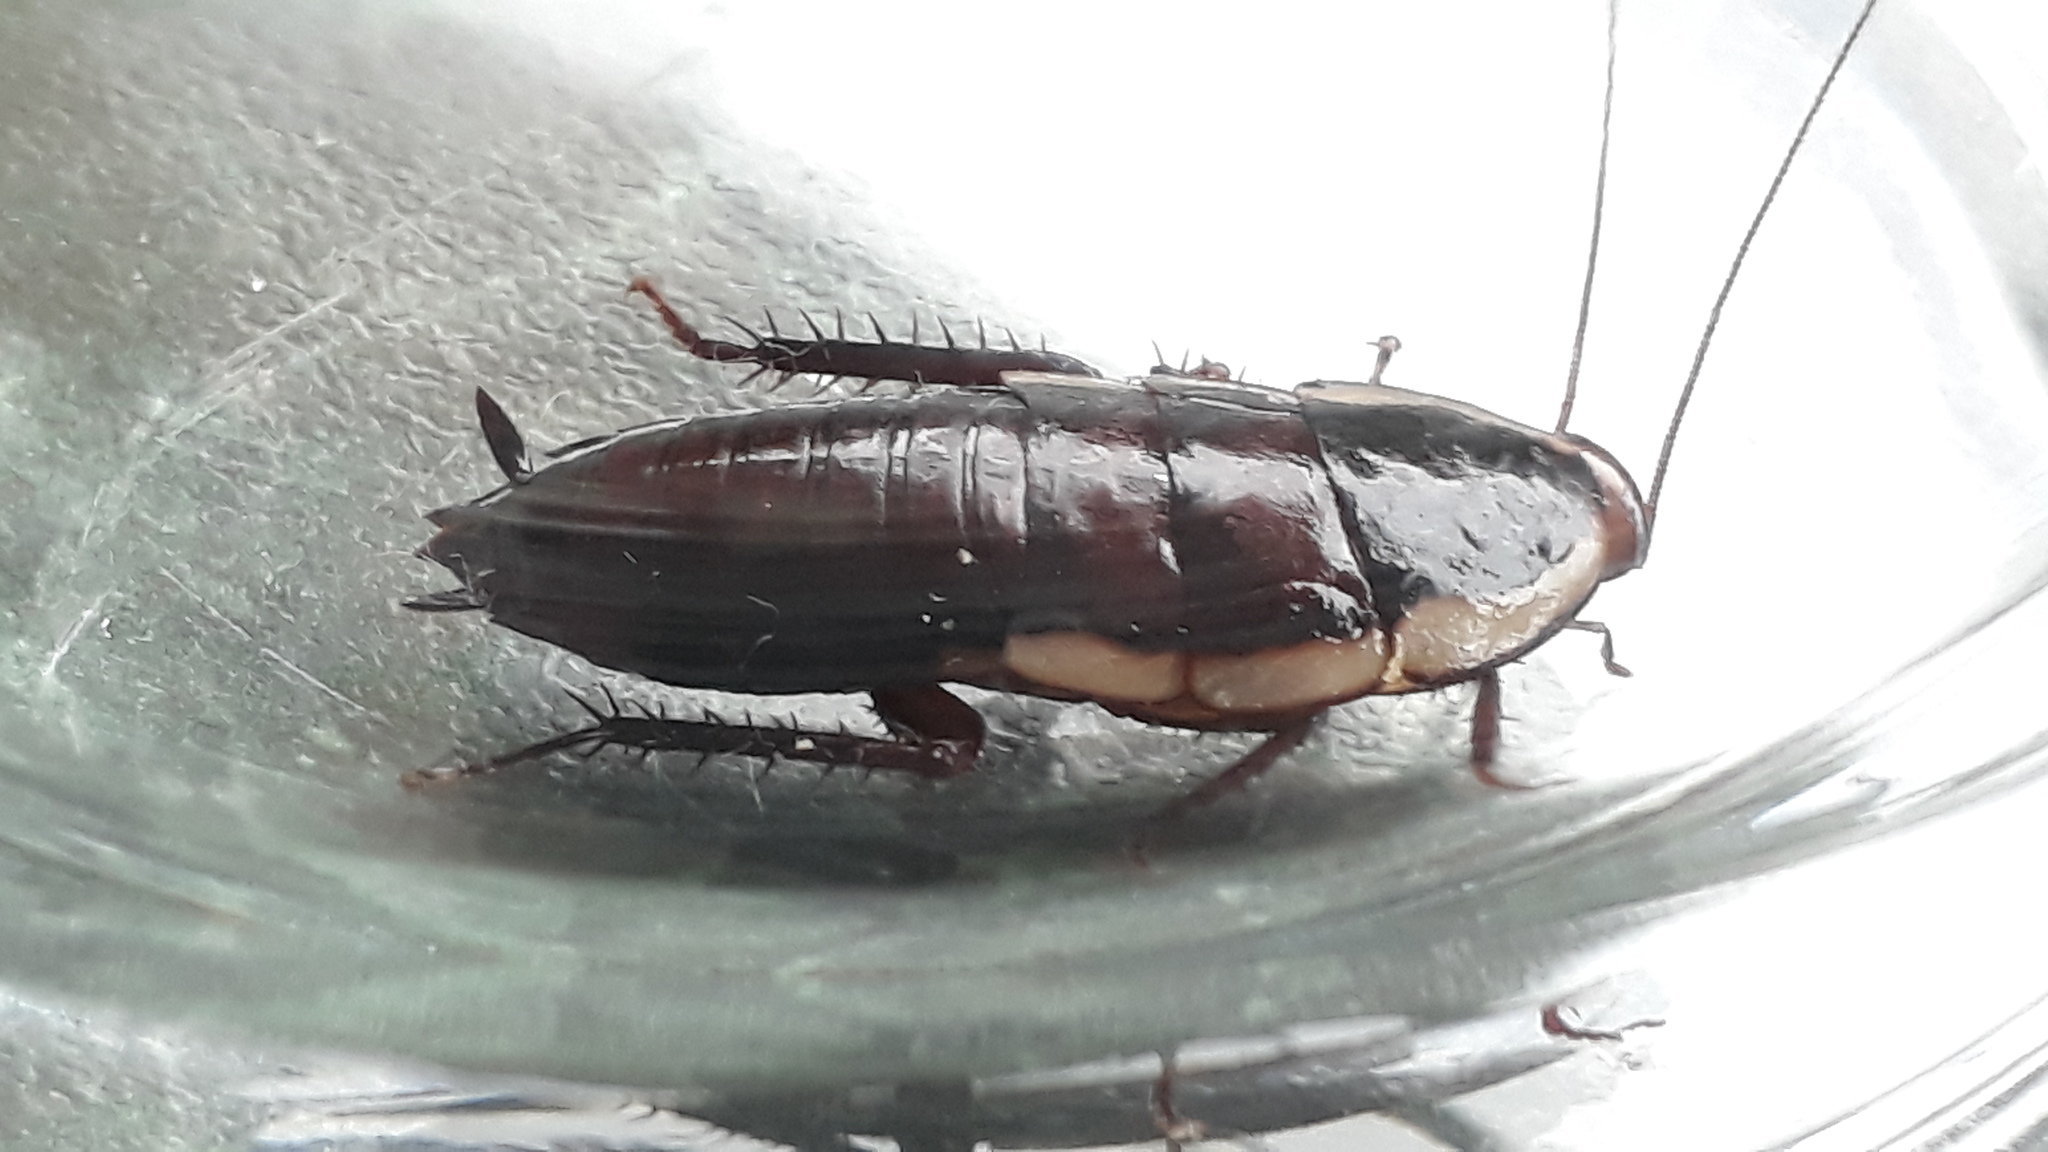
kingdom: Animalia
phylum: Arthropoda
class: Insecta
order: Blattodea
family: Blattidae
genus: Drymaplaneta
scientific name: Drymaplaneta semivitta
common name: Gisborne cockroach
